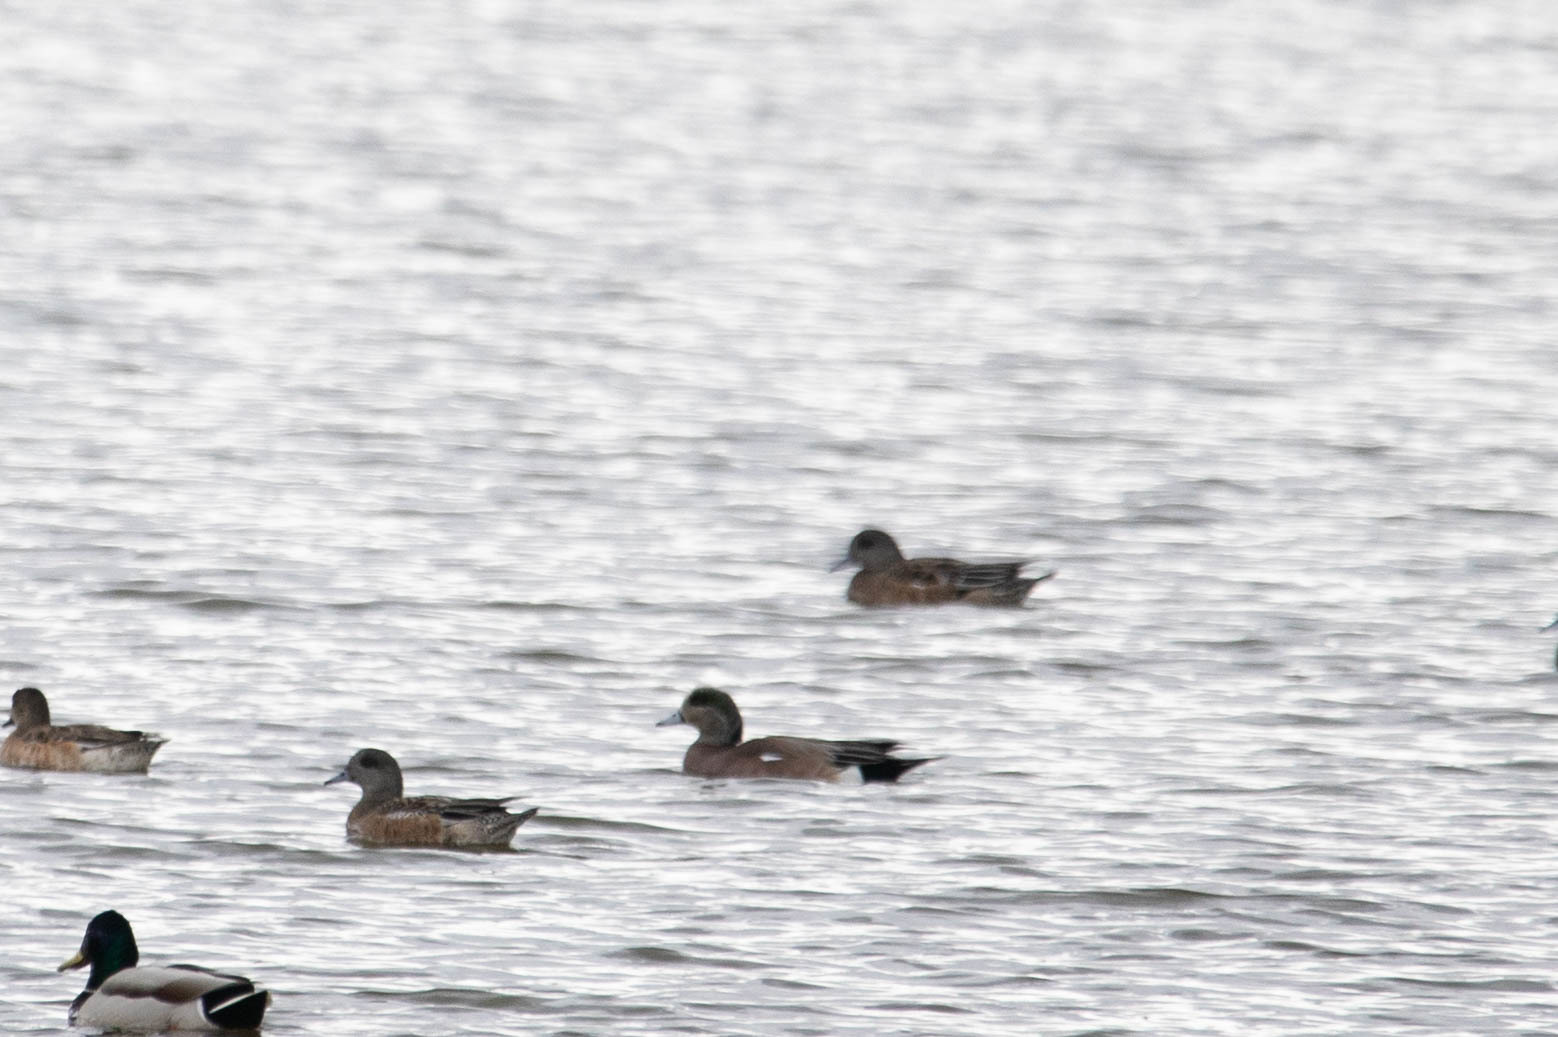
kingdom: Animalia
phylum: Chordata
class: Aves
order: Anseriformes
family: Anatidae
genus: Mareca
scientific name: Mareca americana
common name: American wigeon
